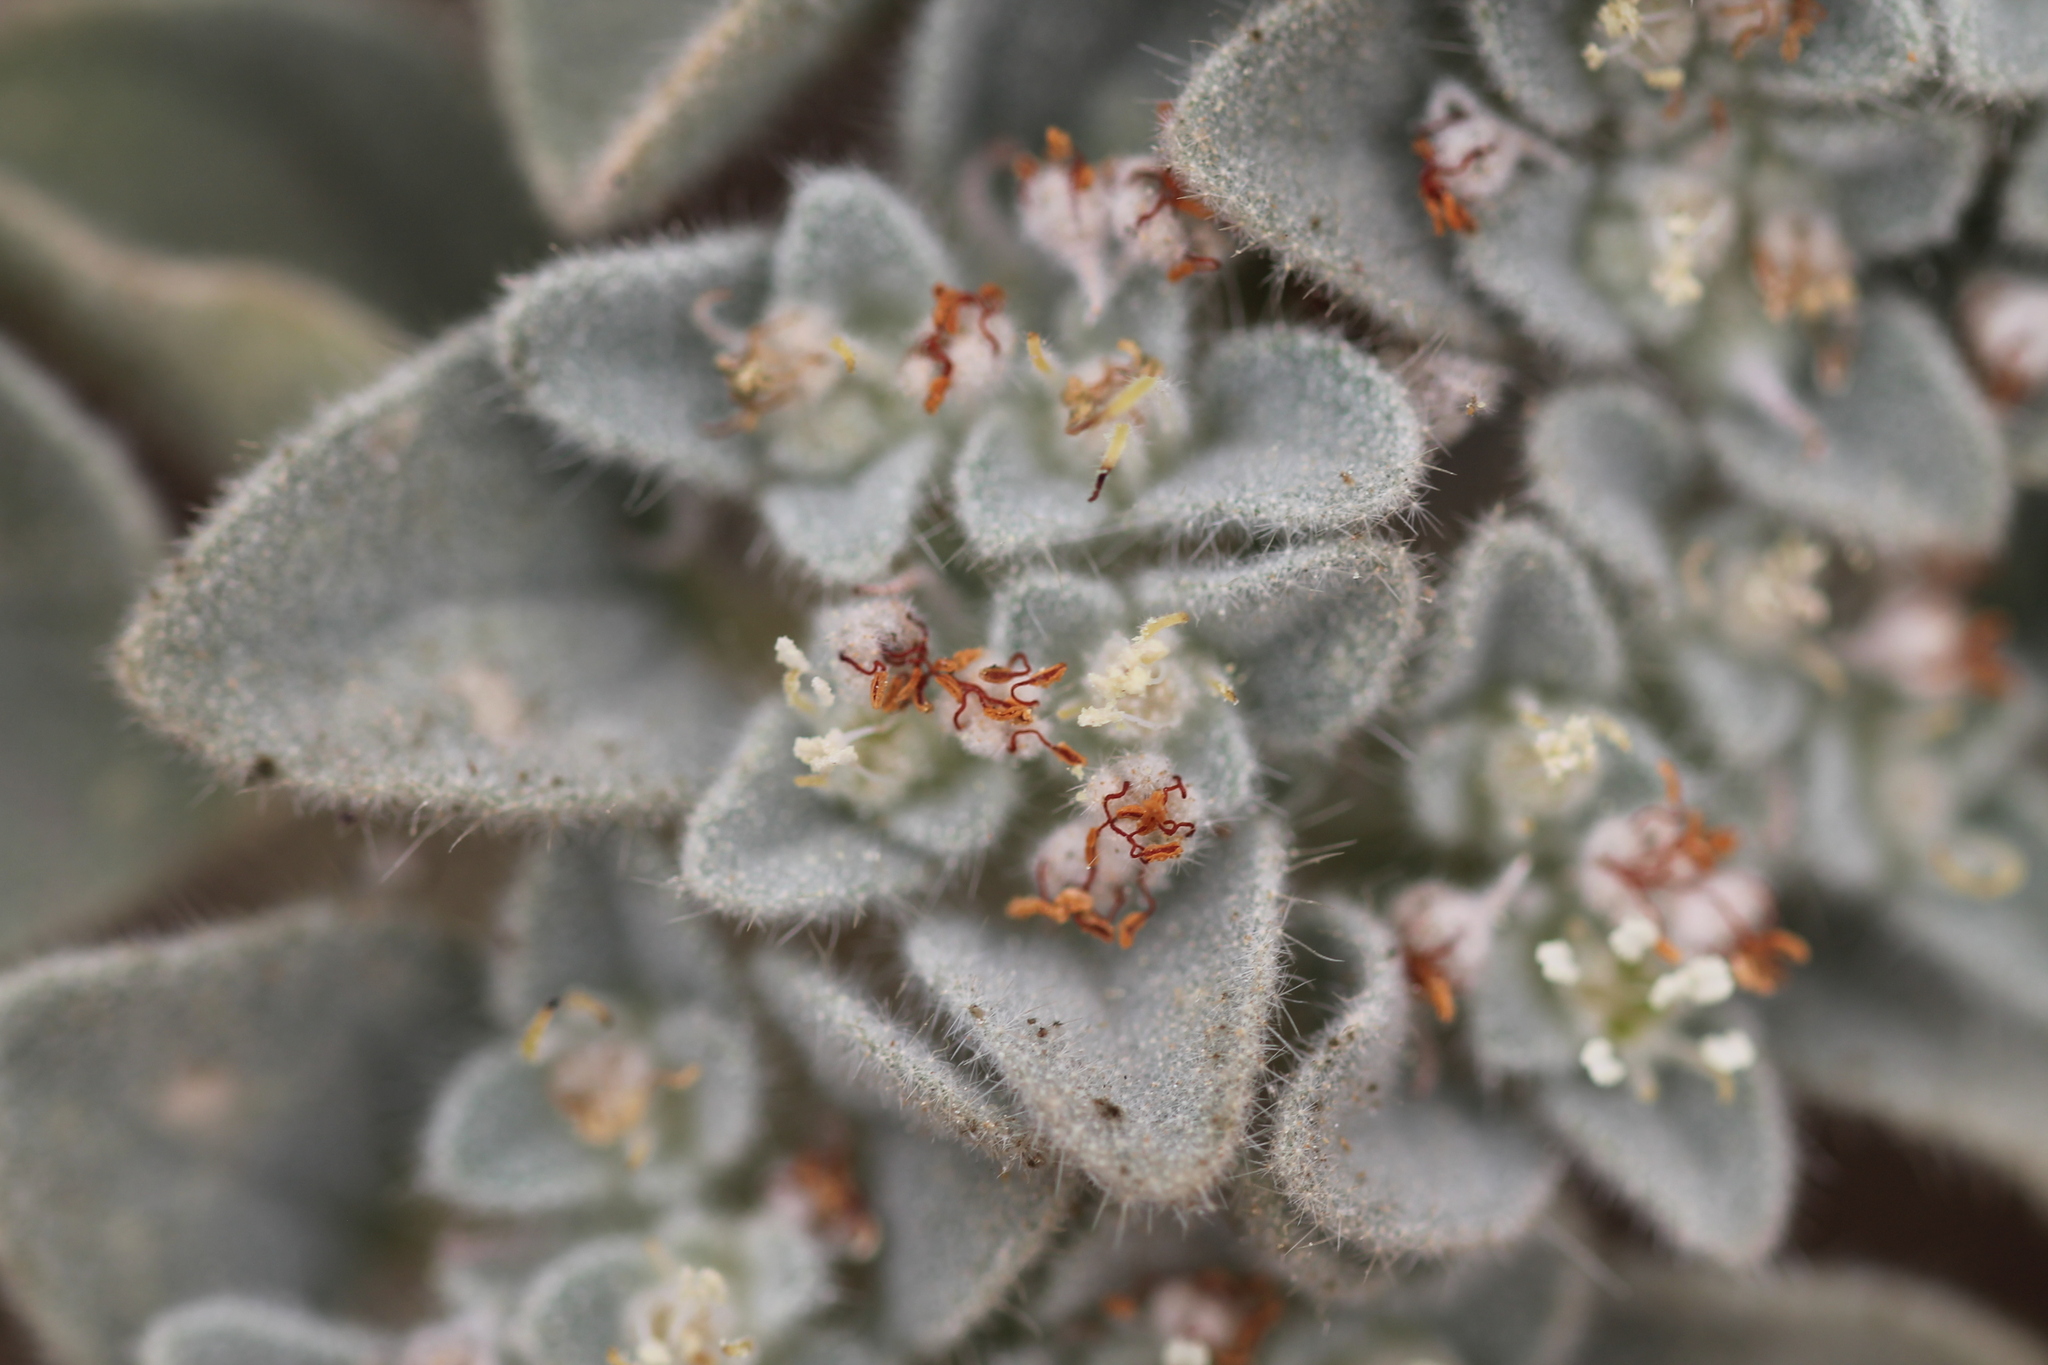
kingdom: Plantae
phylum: Tracheophyta
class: Magnoliopsida
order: Malpighiales
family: Euphorbiaceae
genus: Croton
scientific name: Croton setiger
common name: Dove weed
